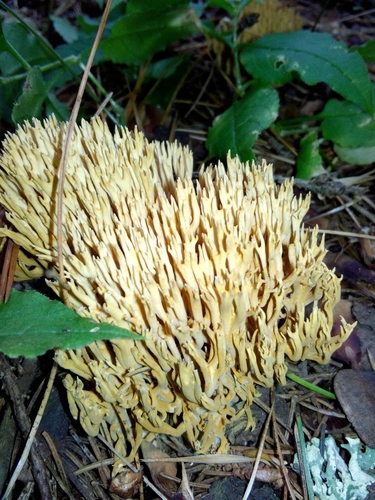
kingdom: Fungi
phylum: Basidiomycota
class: Agaricomycetes
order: Gomphales
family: Gomphaceae
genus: Ramaria
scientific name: Ramaria
